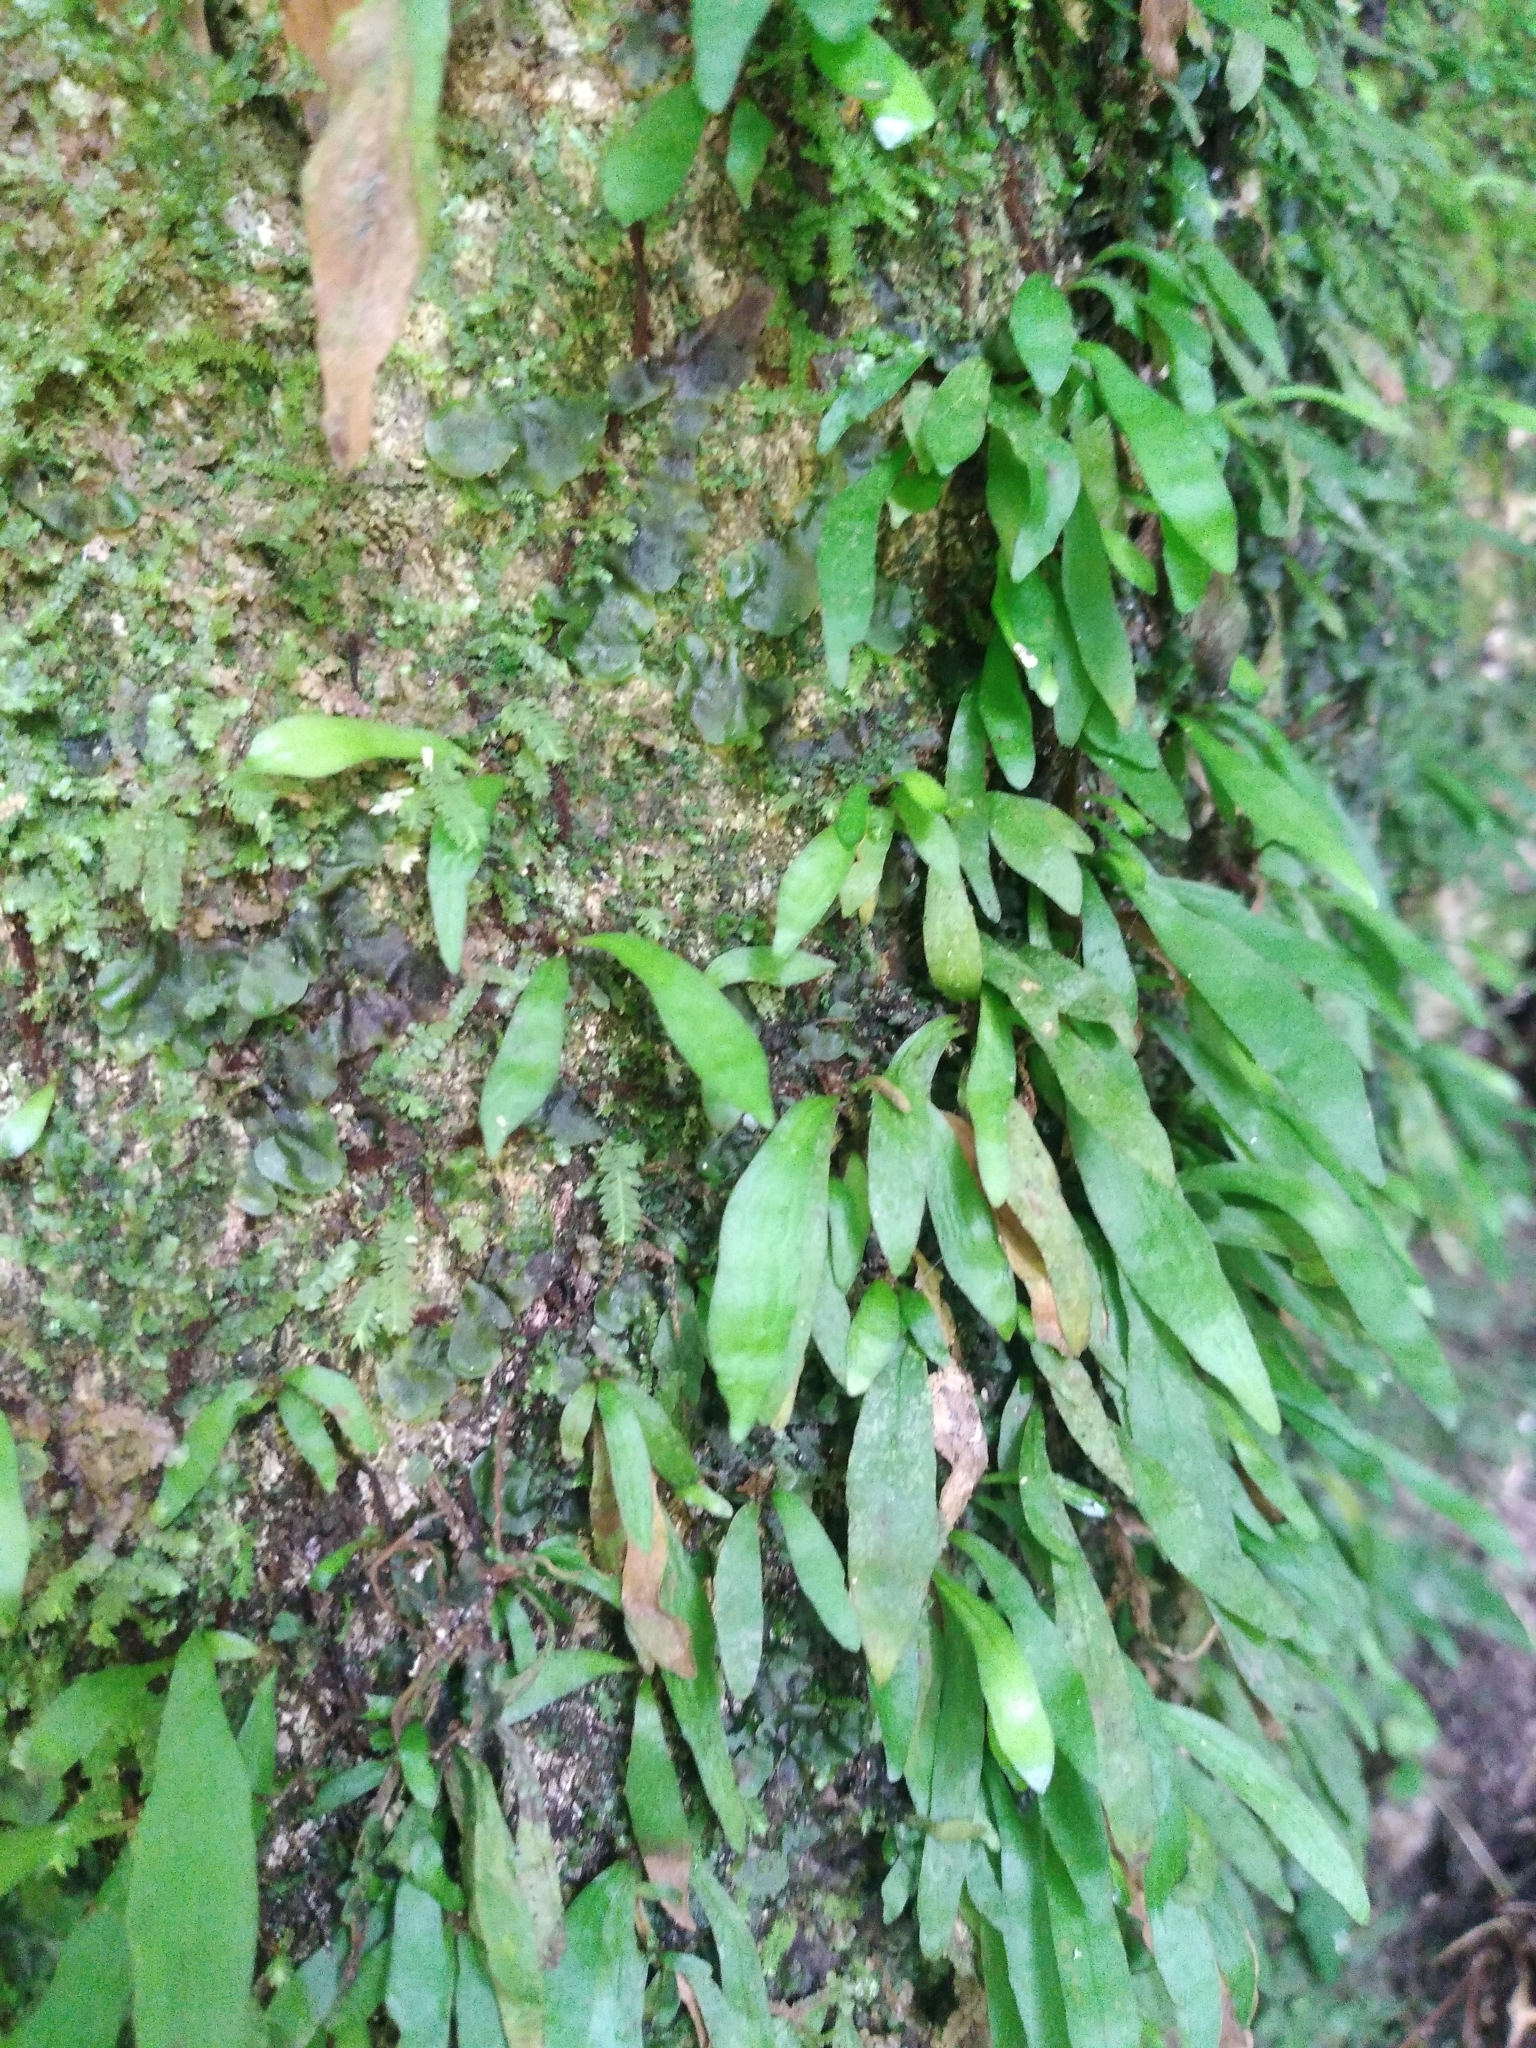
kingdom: Plantae
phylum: Tracheophyta
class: Polypodiopsida
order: Polypodiales
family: Polypodiaceae
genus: Loxogramme
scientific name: Loxogramme dictyopteris
